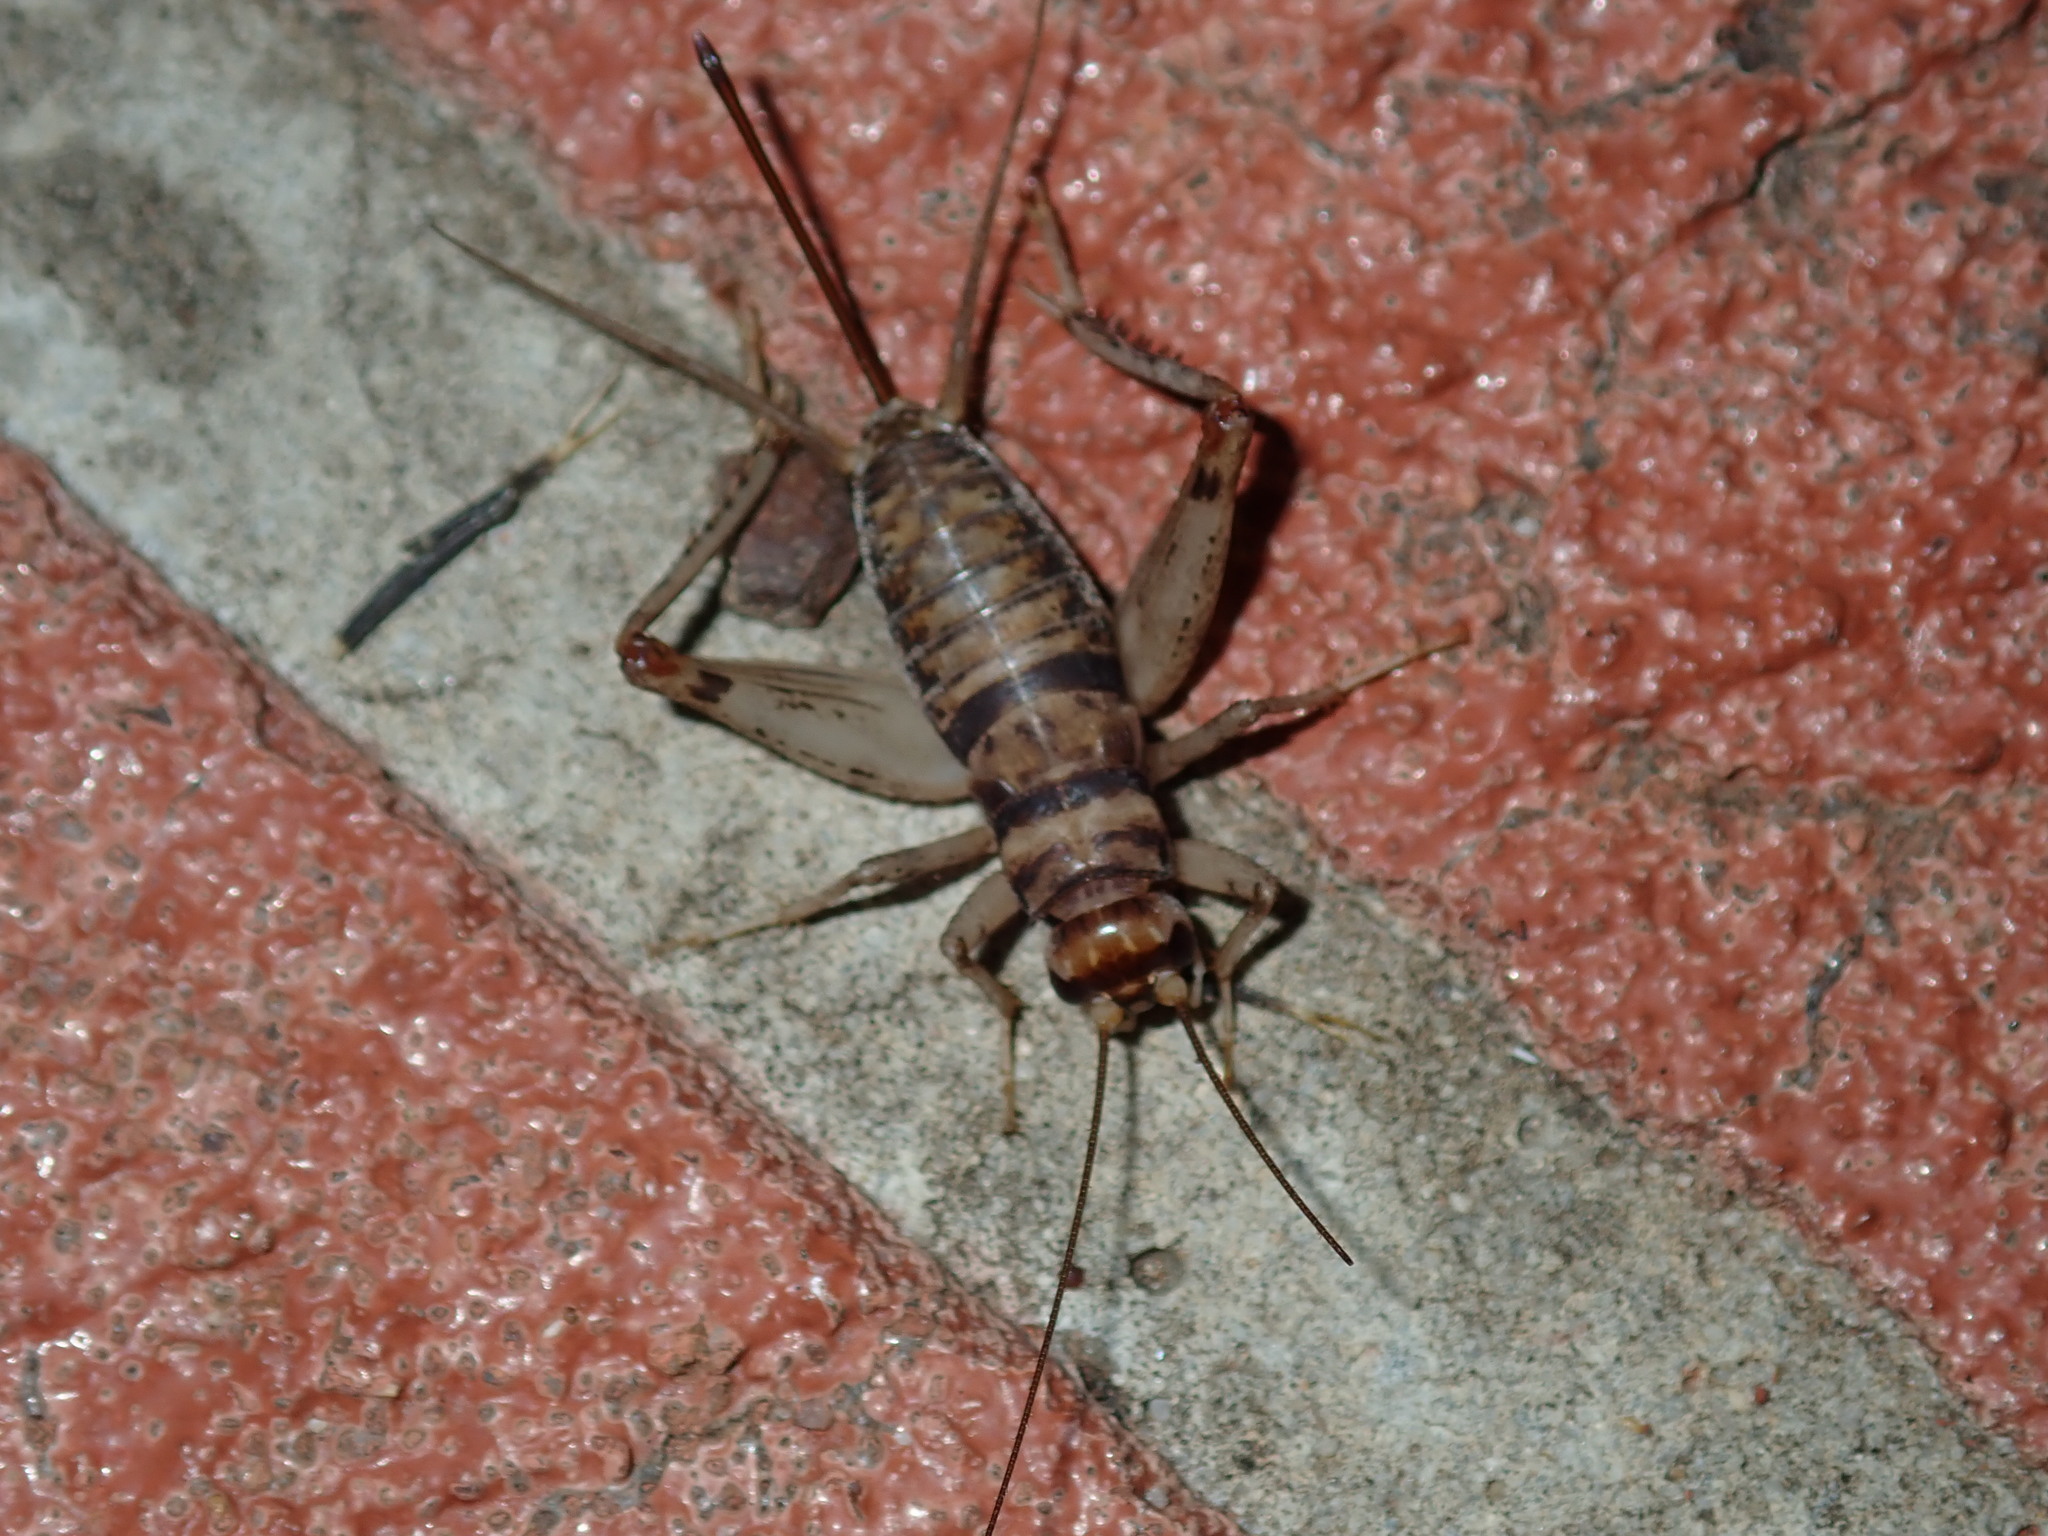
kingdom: Animalia
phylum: Arthropoda
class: Insecta
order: Orthoptera
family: Gryllidae
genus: Gryllodes
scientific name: Gryllodes sigillatus
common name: Tropical house cricket
